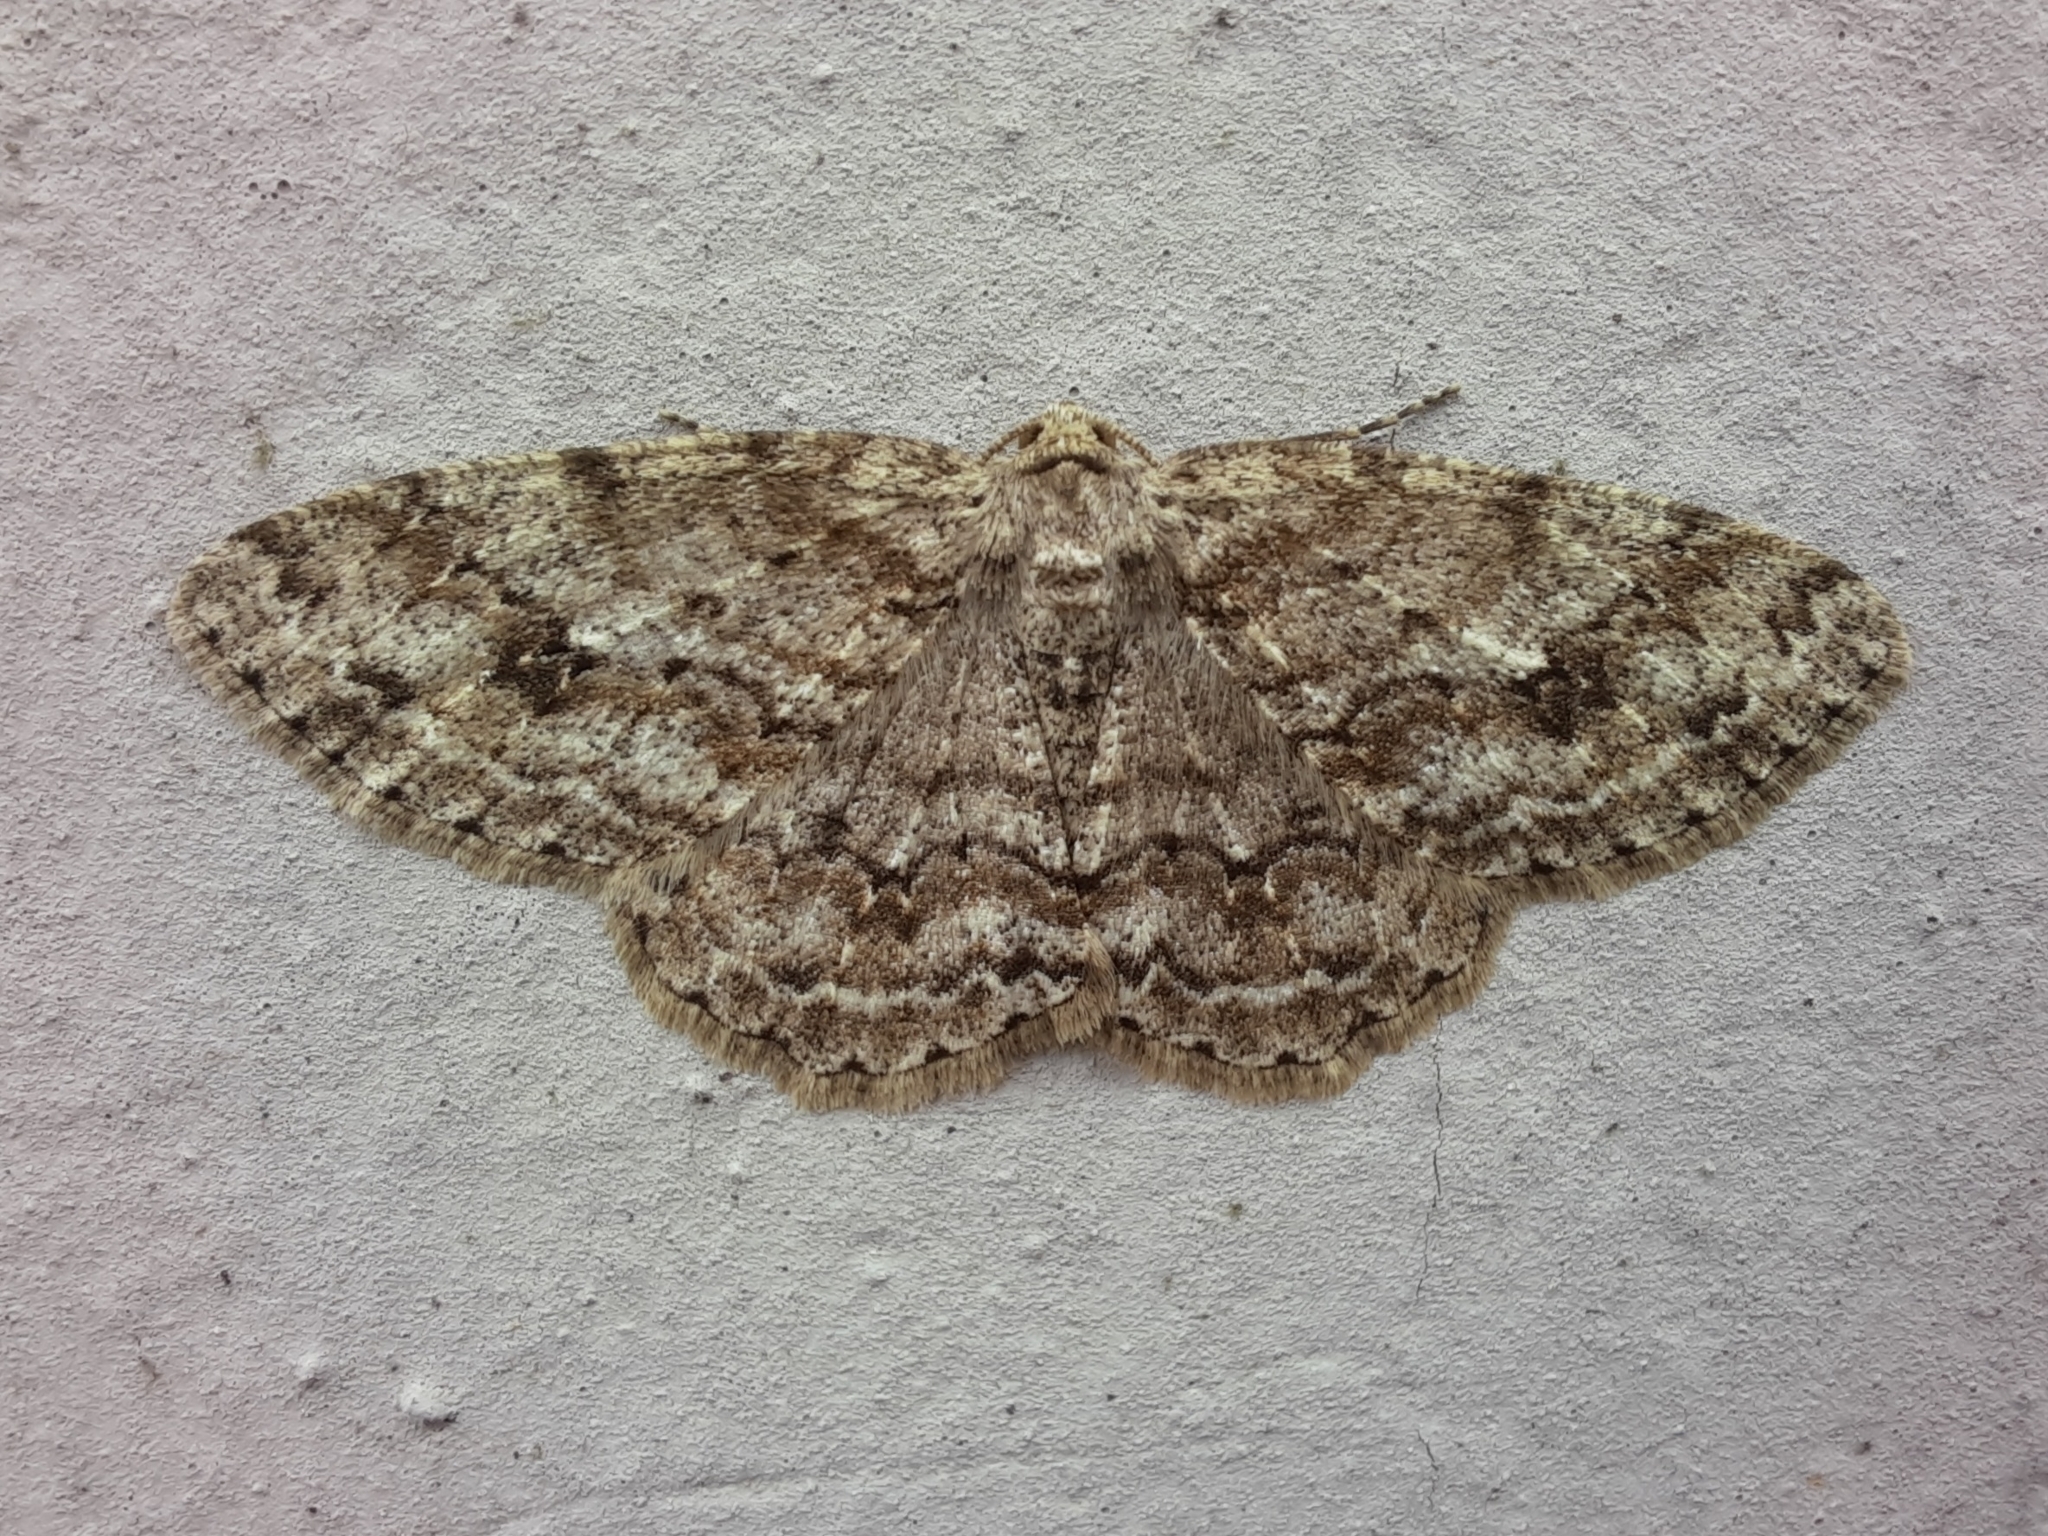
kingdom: Animalia
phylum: Arthropoda
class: Insecta
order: Lepidoptera
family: Geometridae
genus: Ectropis
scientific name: Ectropis crepuscularia
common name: Engrailed
